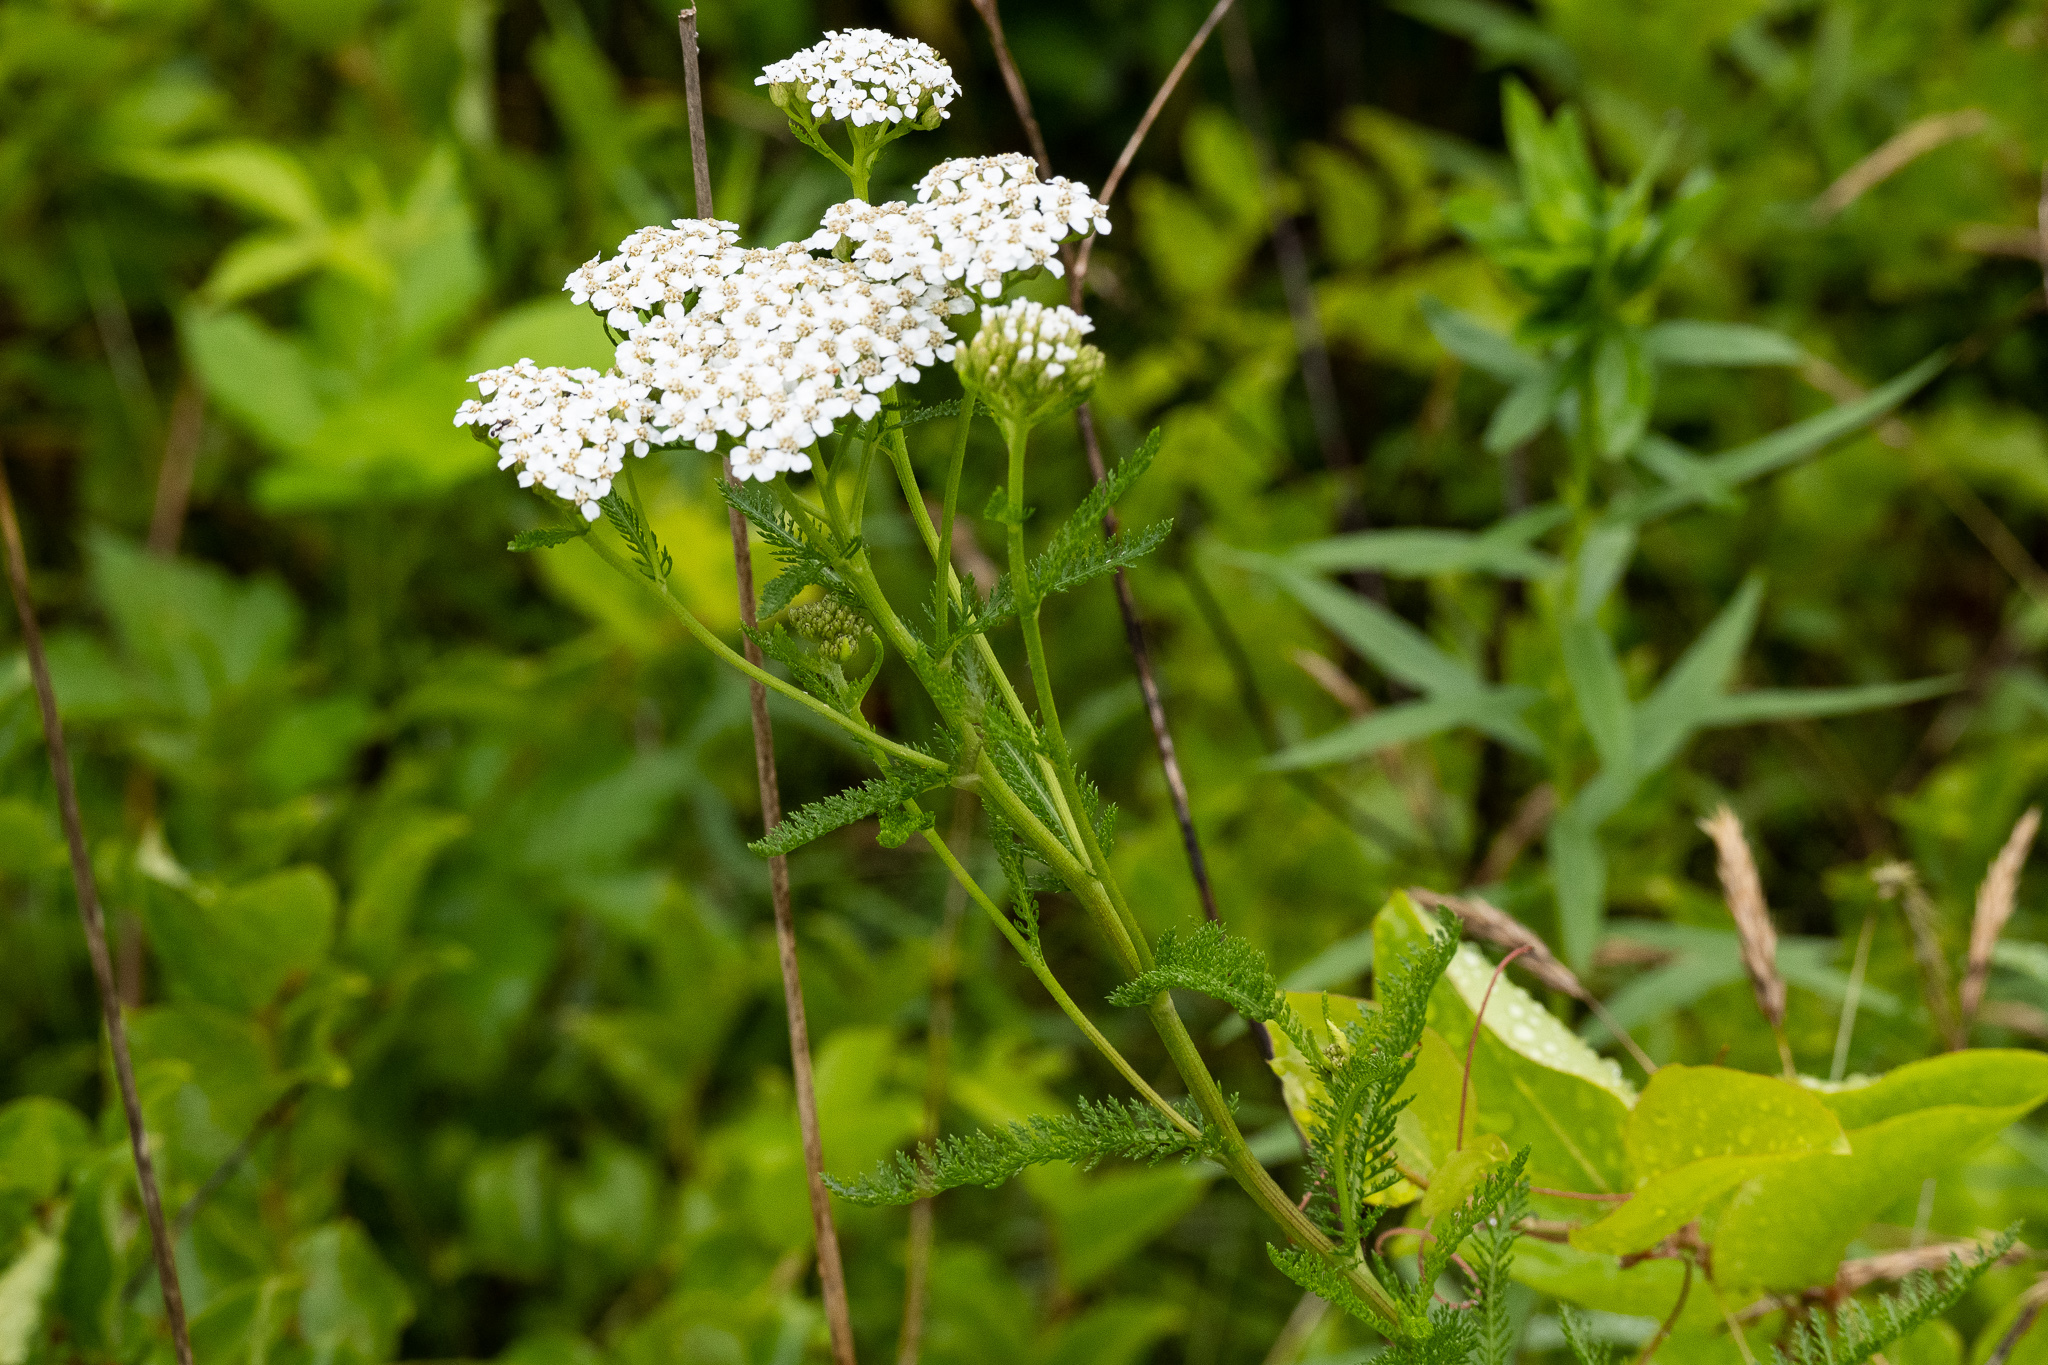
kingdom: Plantae
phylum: Tracheophyta
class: Magnoliopsida
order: Asterales
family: Asteraceae
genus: Achillea
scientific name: Achillea millefolium
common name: Yarrow
